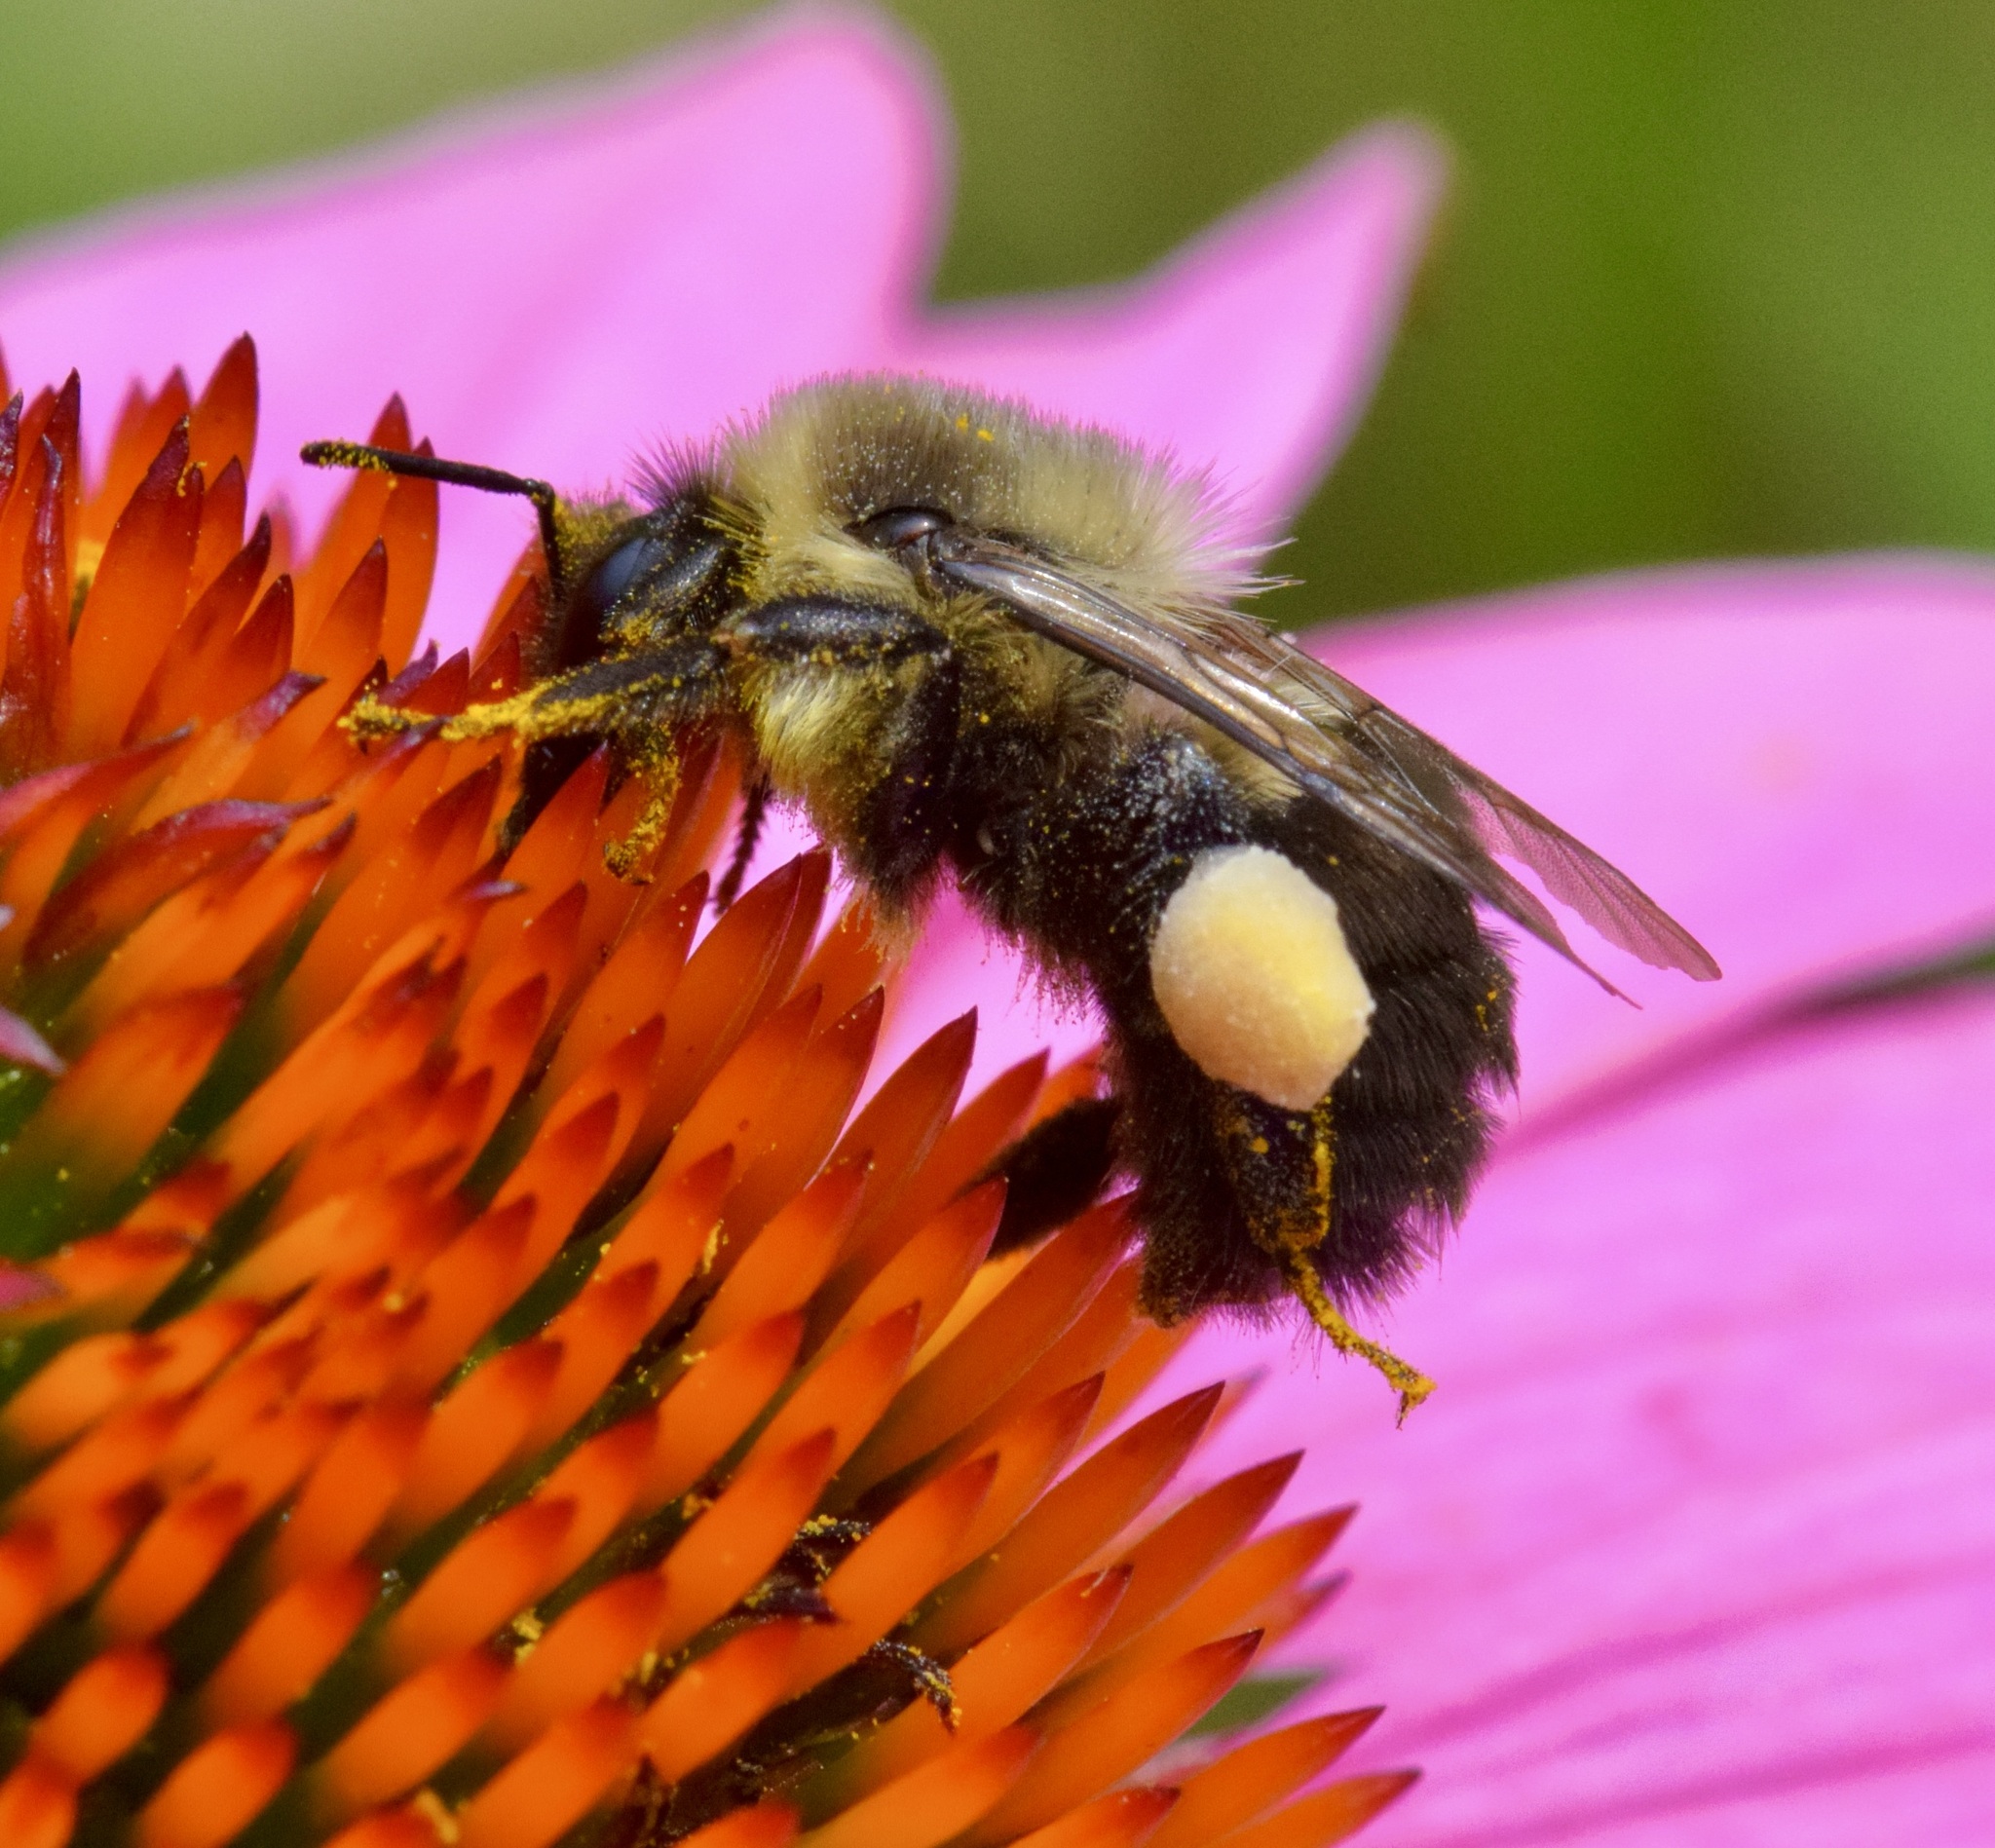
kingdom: Animalia
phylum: Arthropoda
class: Insecta
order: Hymenoptera
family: Apidae
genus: Bombus
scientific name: Bombus impatiens
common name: Common eastern bumble bee
